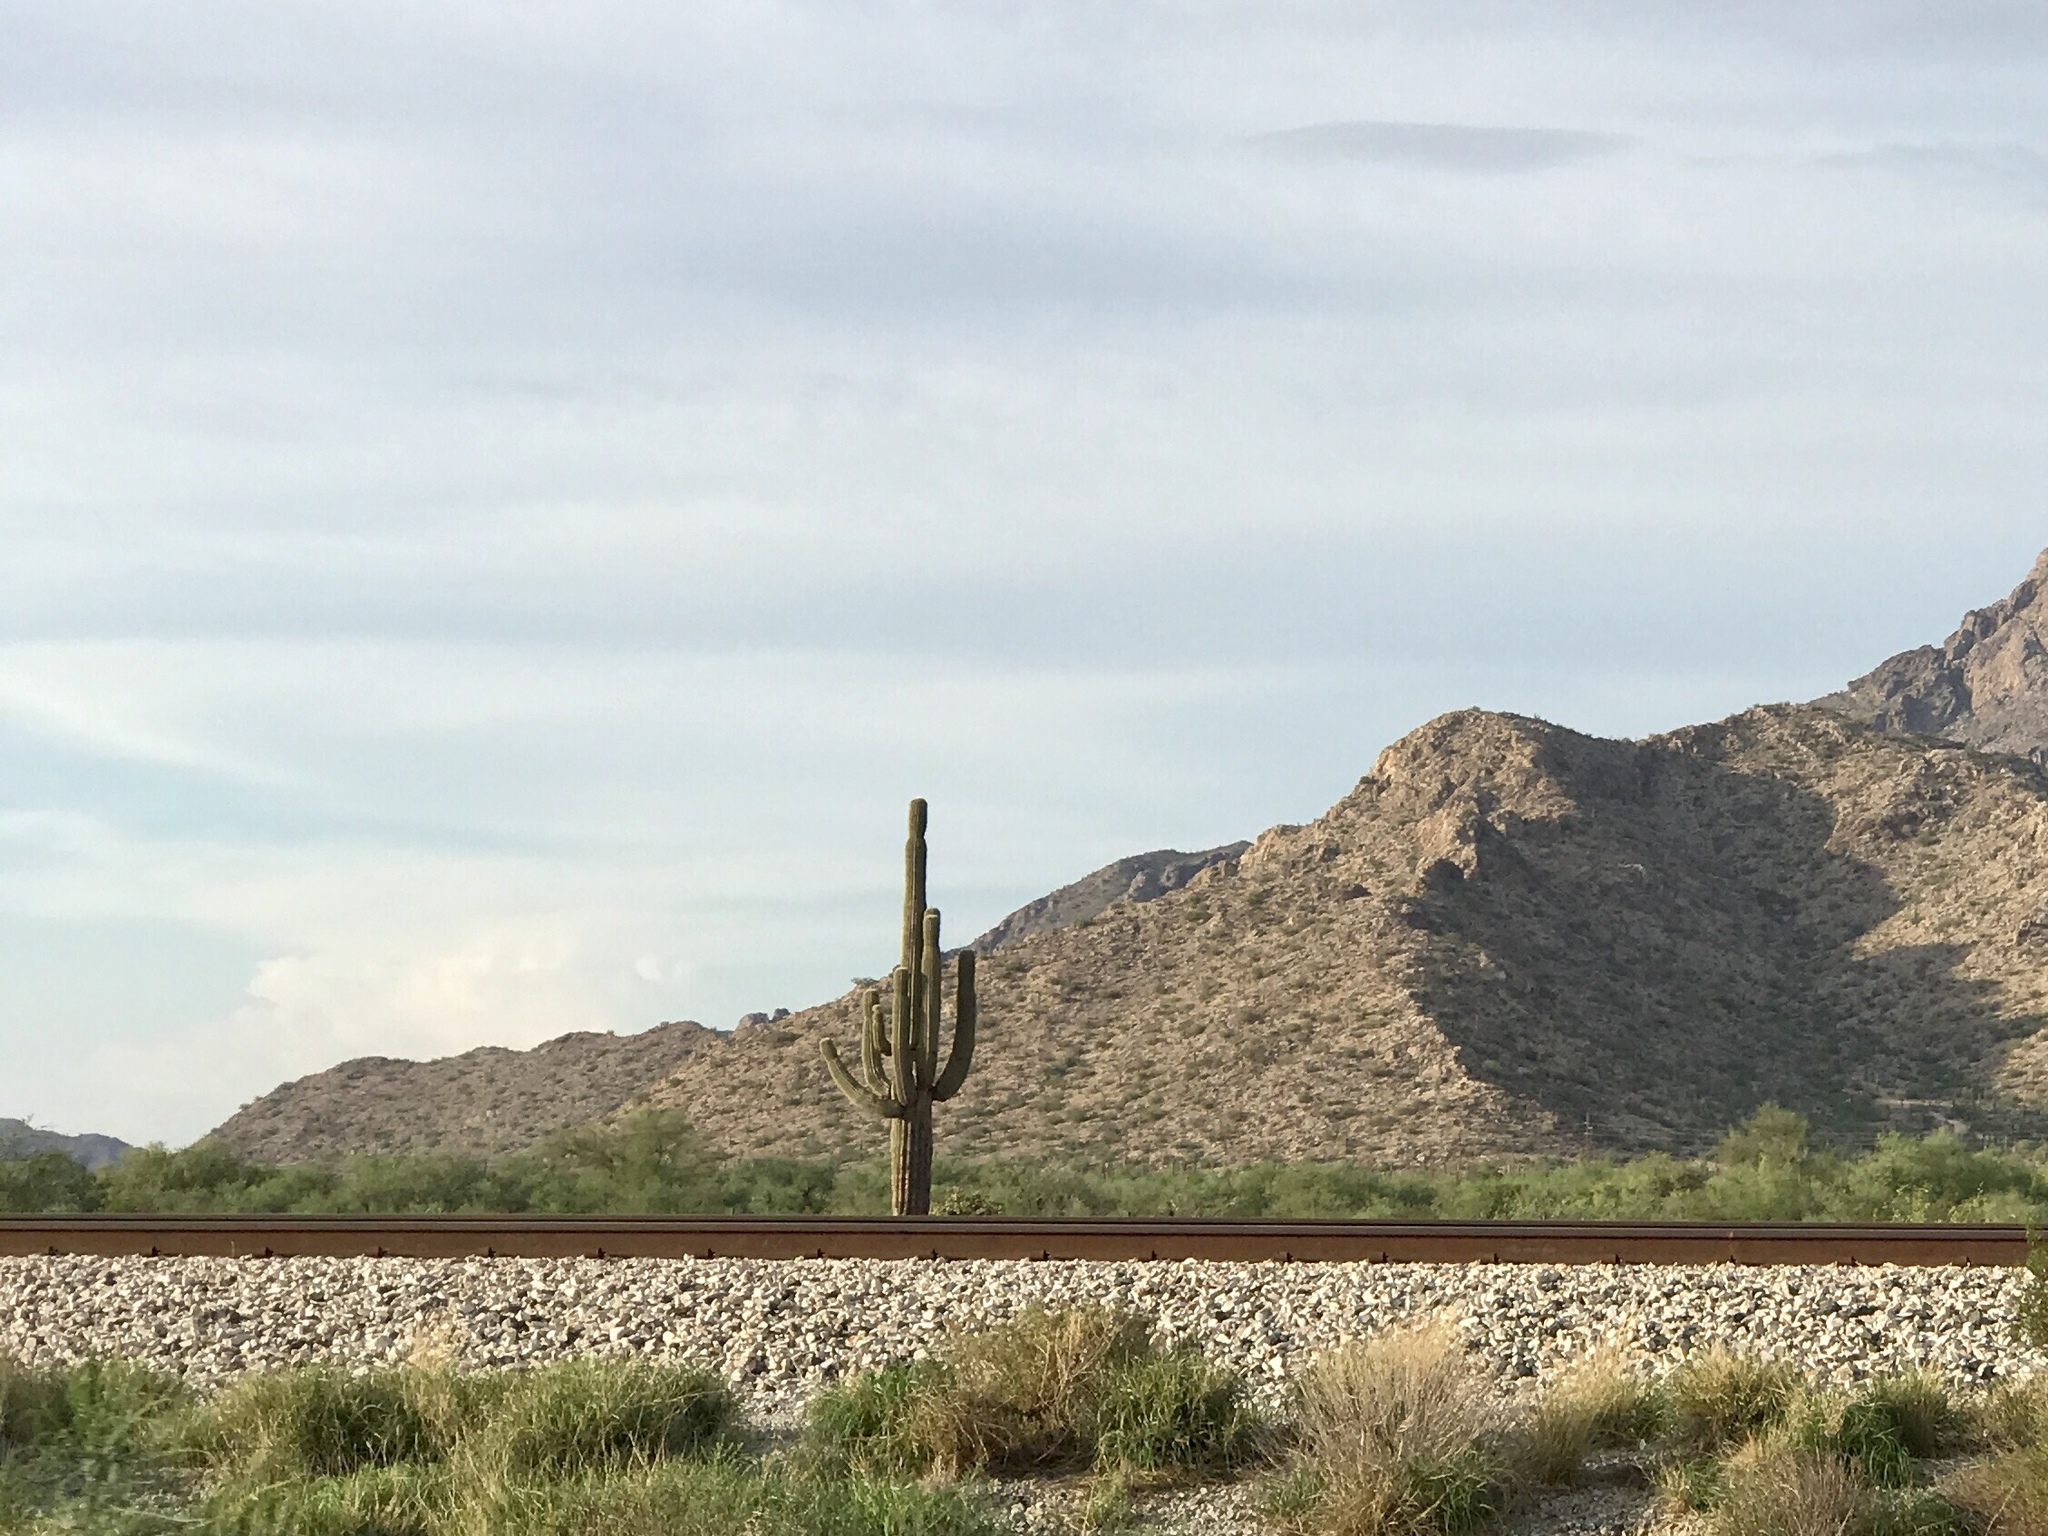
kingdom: Plantae
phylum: Tracheophyta
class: Magnoliopsida
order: Caryophyllales
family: Cactaceae
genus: Carnegiea
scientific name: Carnegiea gigantea
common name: Saguaro
